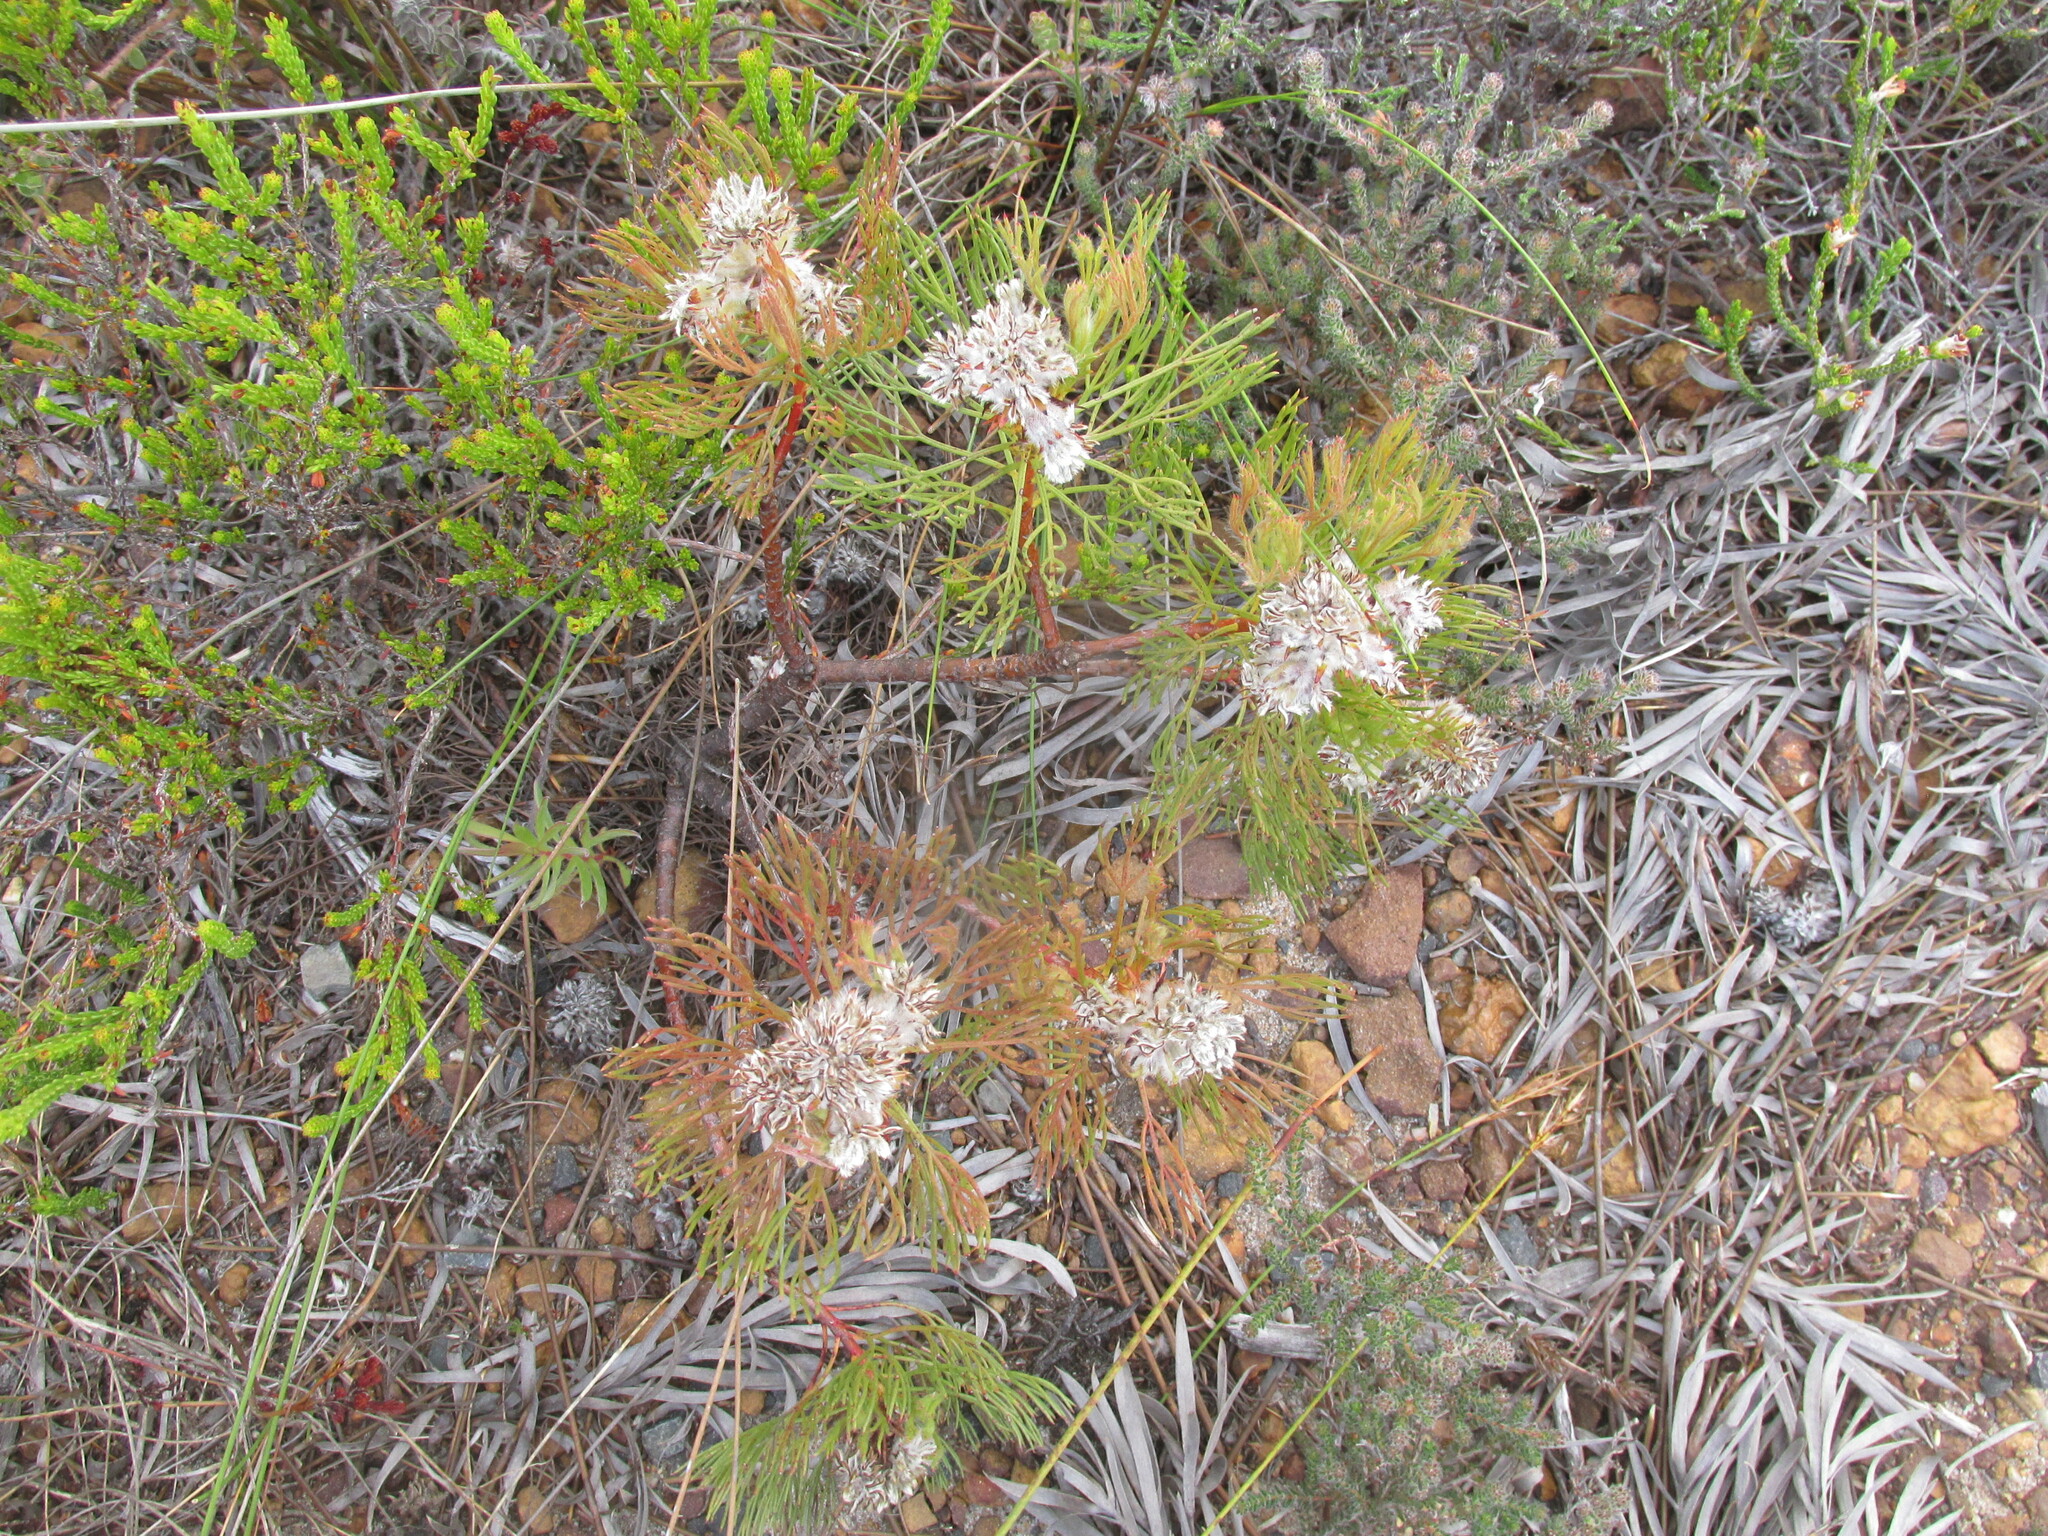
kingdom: Plantae
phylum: Tracheophyta
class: Magnoliopsida
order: Proteales
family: Proteaceae
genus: Serruria
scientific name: Serruria glomerata
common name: Cluster spiderhead
